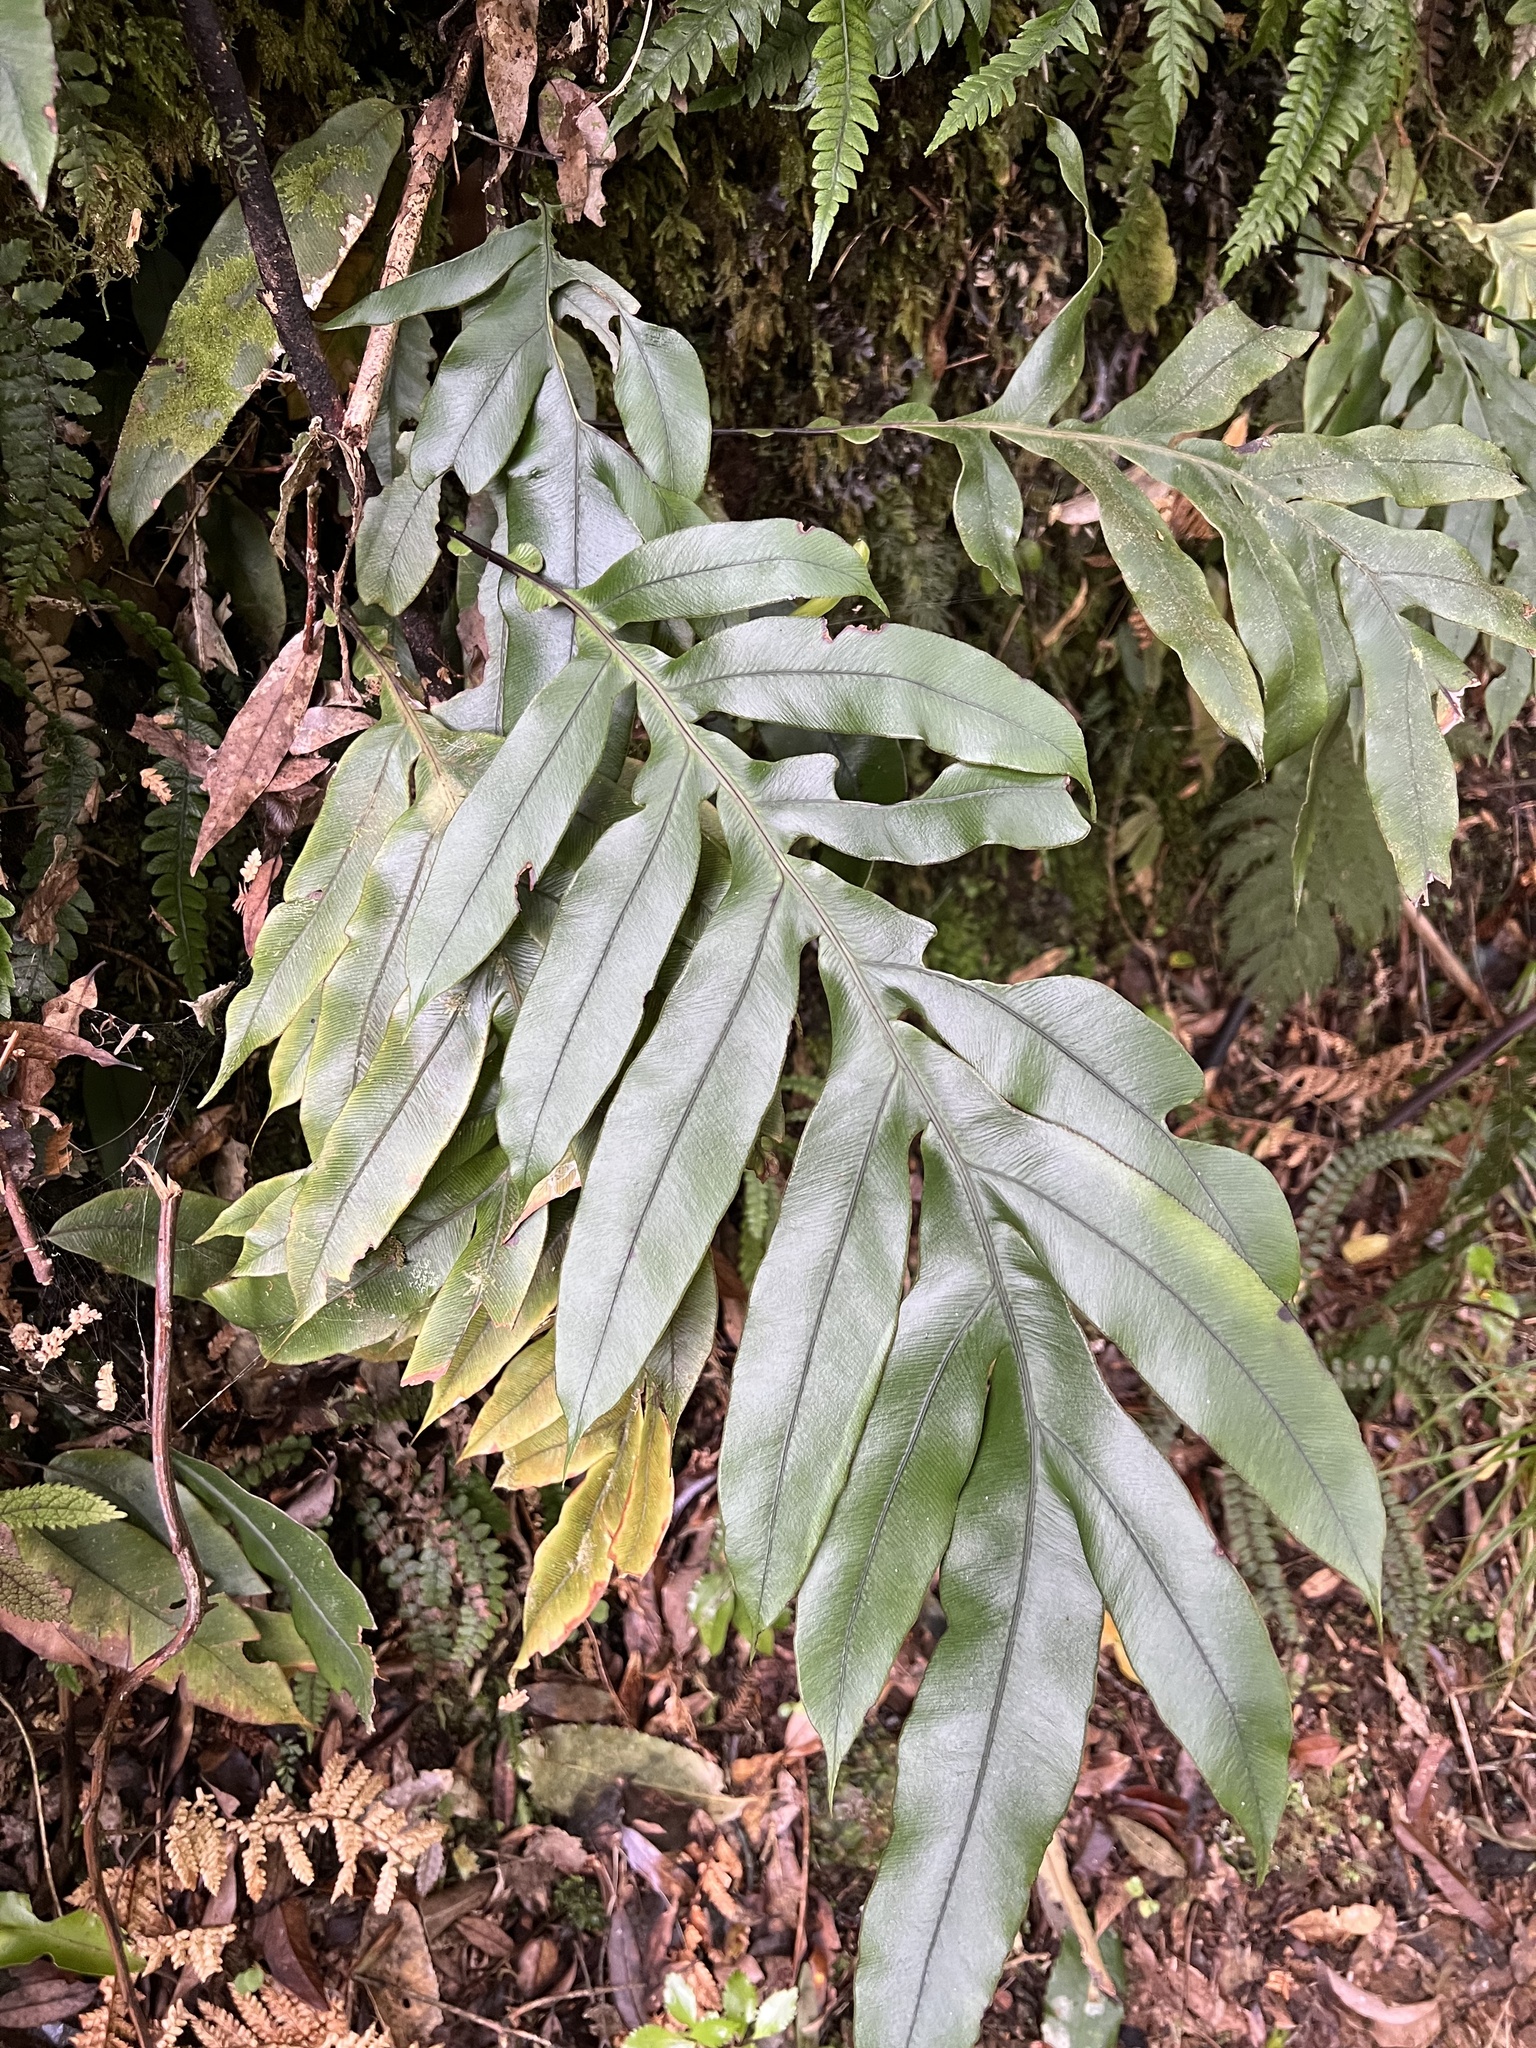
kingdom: Plantae
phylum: Tracheophyta
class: Polypodiopsida
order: Polypodiales
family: Blechnaceae
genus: Austroblechnum
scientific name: Austroblechnum colensoi
